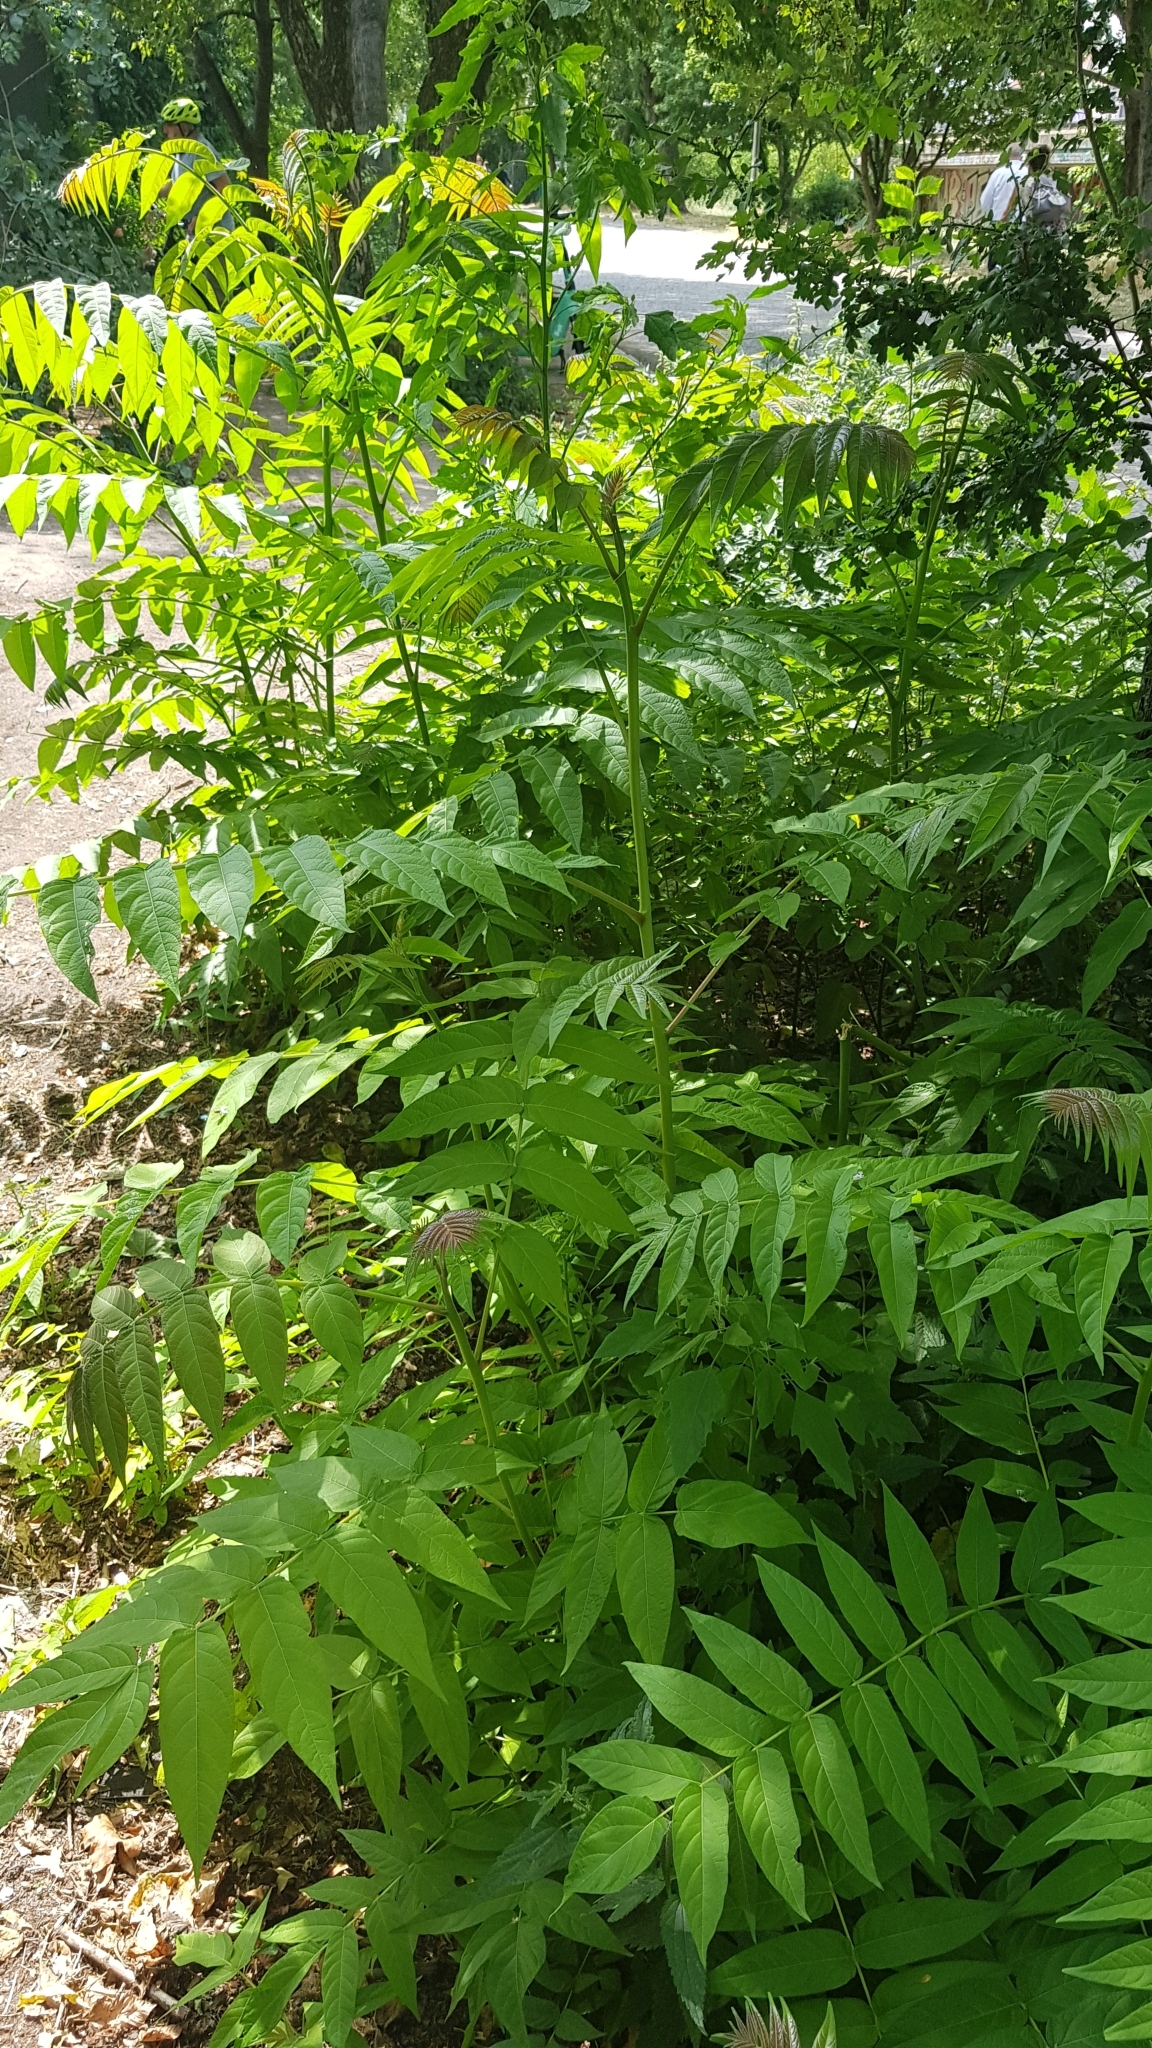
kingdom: Plantae
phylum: Tracheophyta
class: Magnoliopsida
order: Sapindales
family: Simaroubaceae
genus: Ailanthus
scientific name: Ailanthus altissima
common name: Tree-of-heaven
